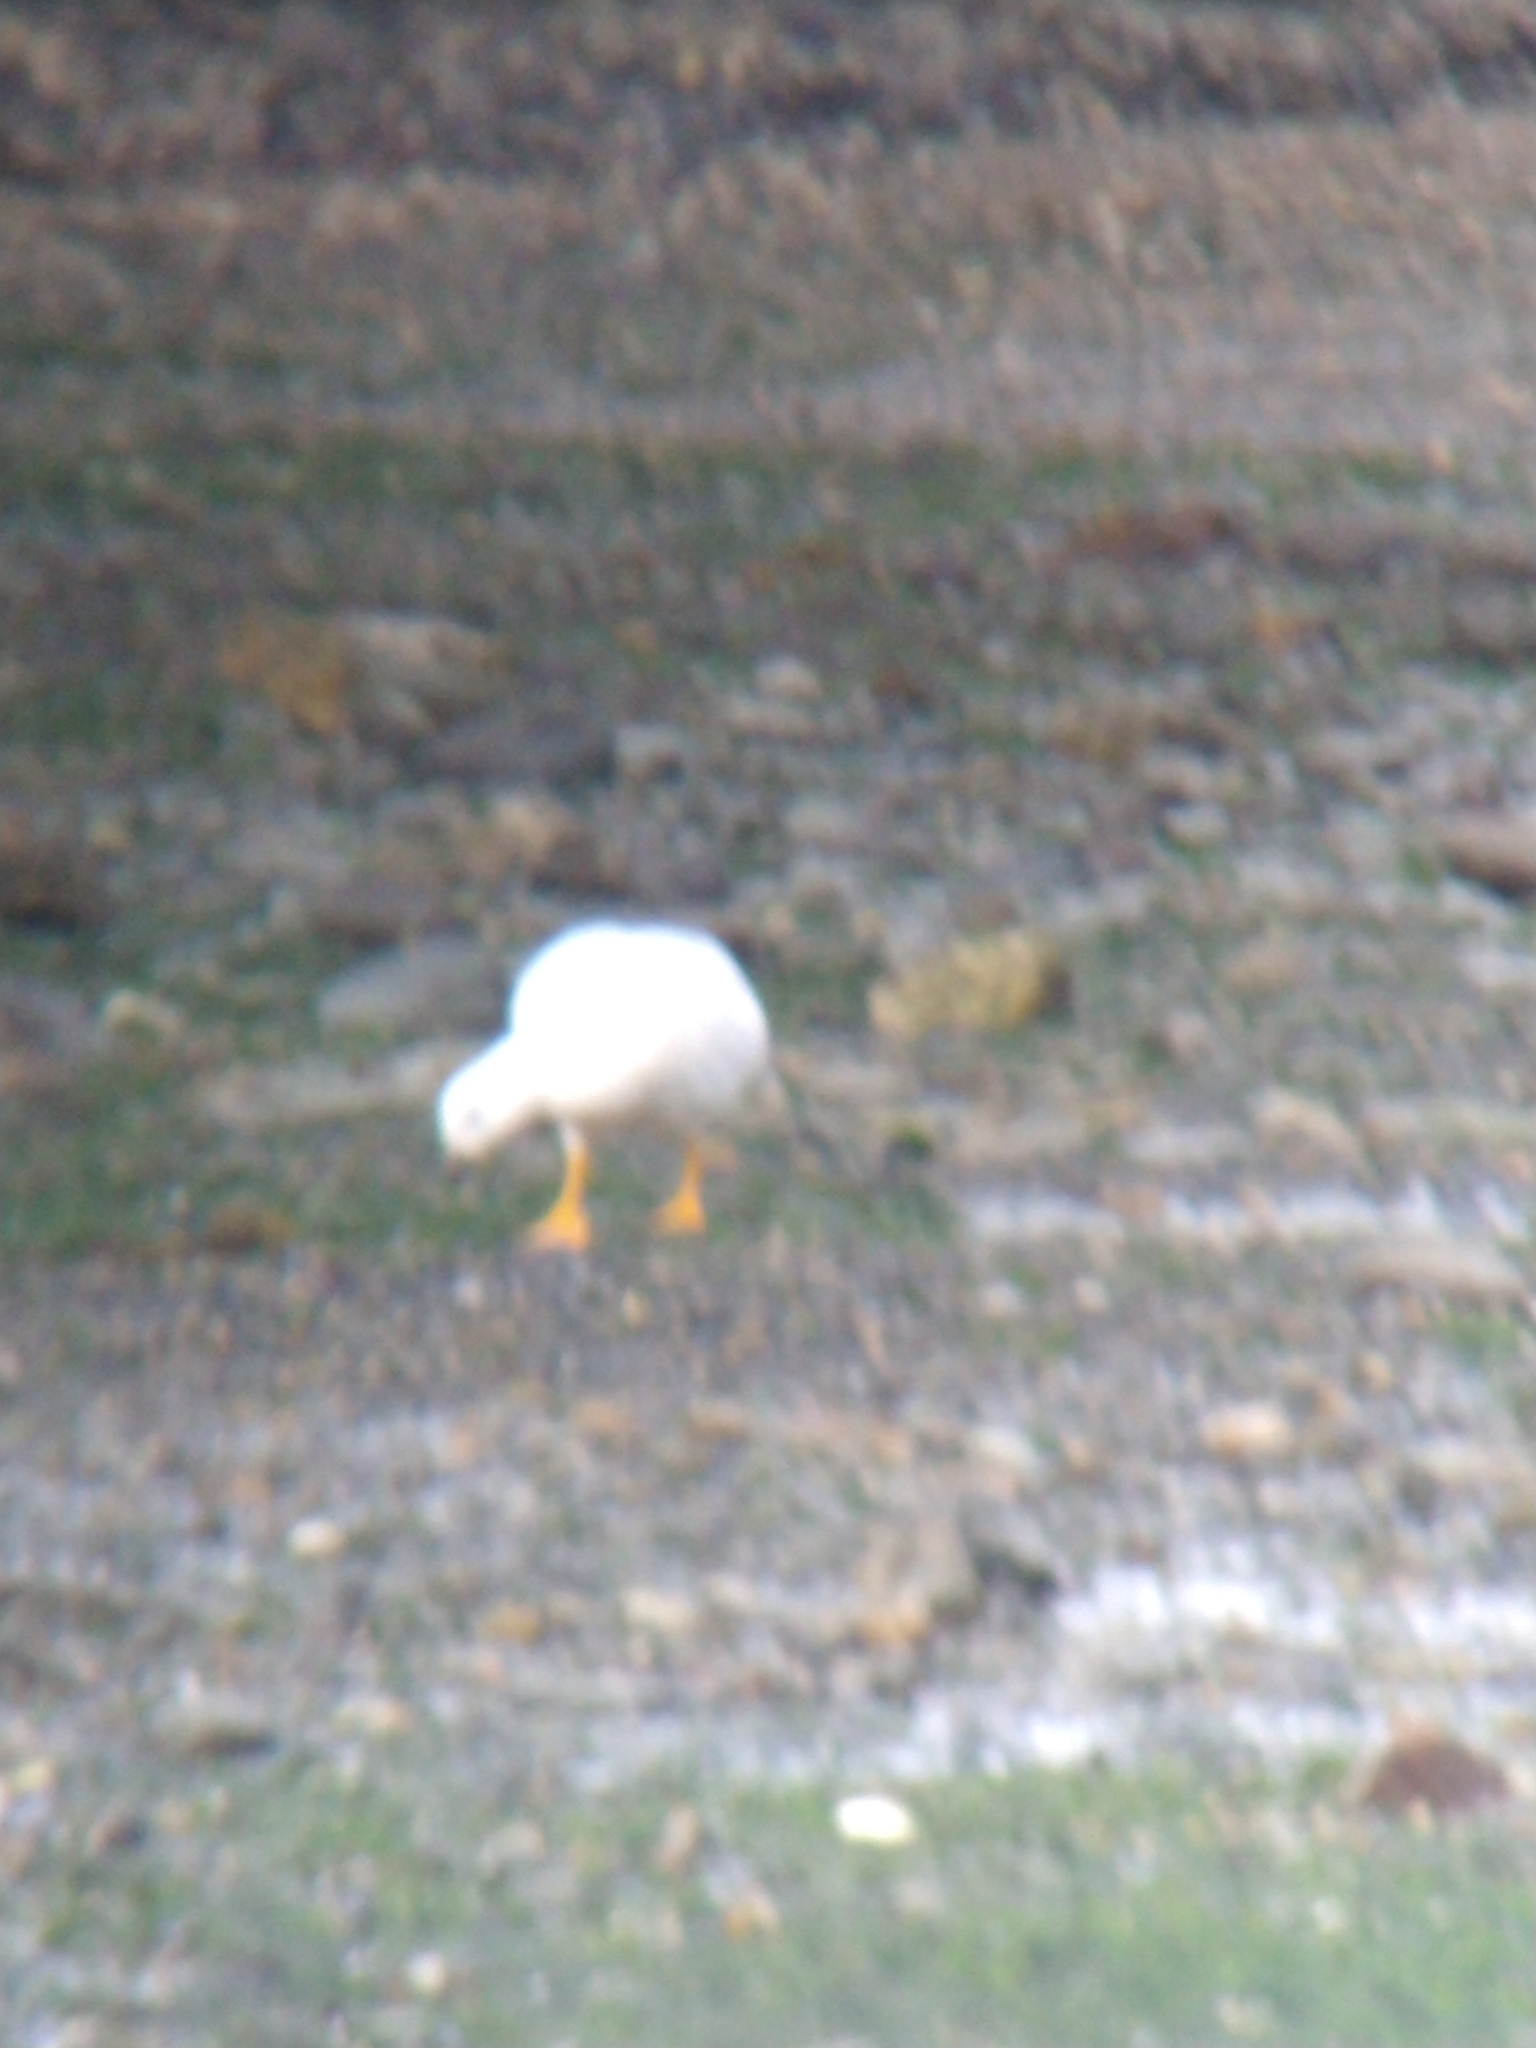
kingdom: Animalia
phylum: Chordata
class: Aves
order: Anseriformes
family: Anatidae
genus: Chloephaga
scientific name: Chloephaga hybrida
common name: Kelp goose
